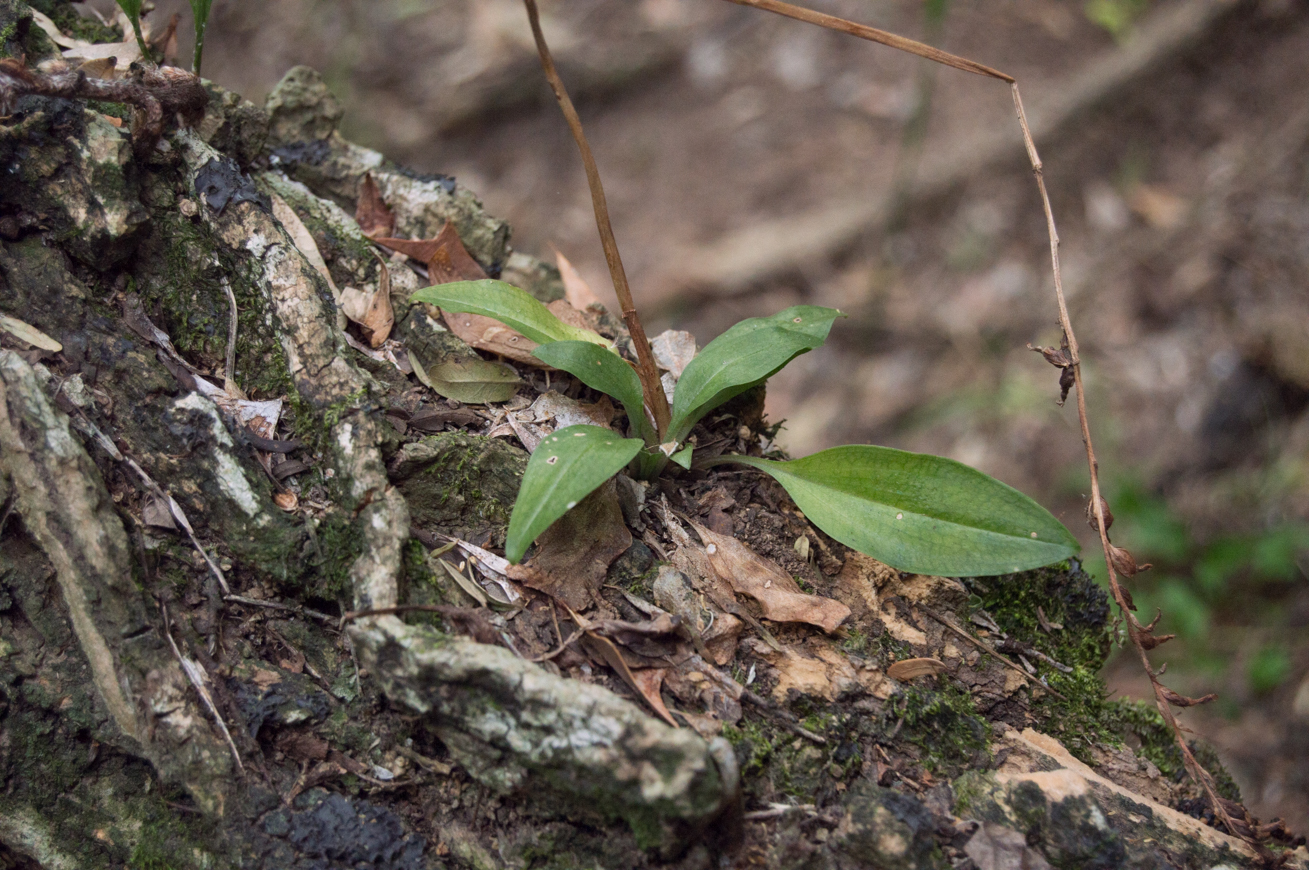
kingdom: Plantae
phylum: Tracheophyta
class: Liliopsida
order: Asparagales
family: Orchidaceae
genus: Cyclopogon
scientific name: Cyclopogon elatus
